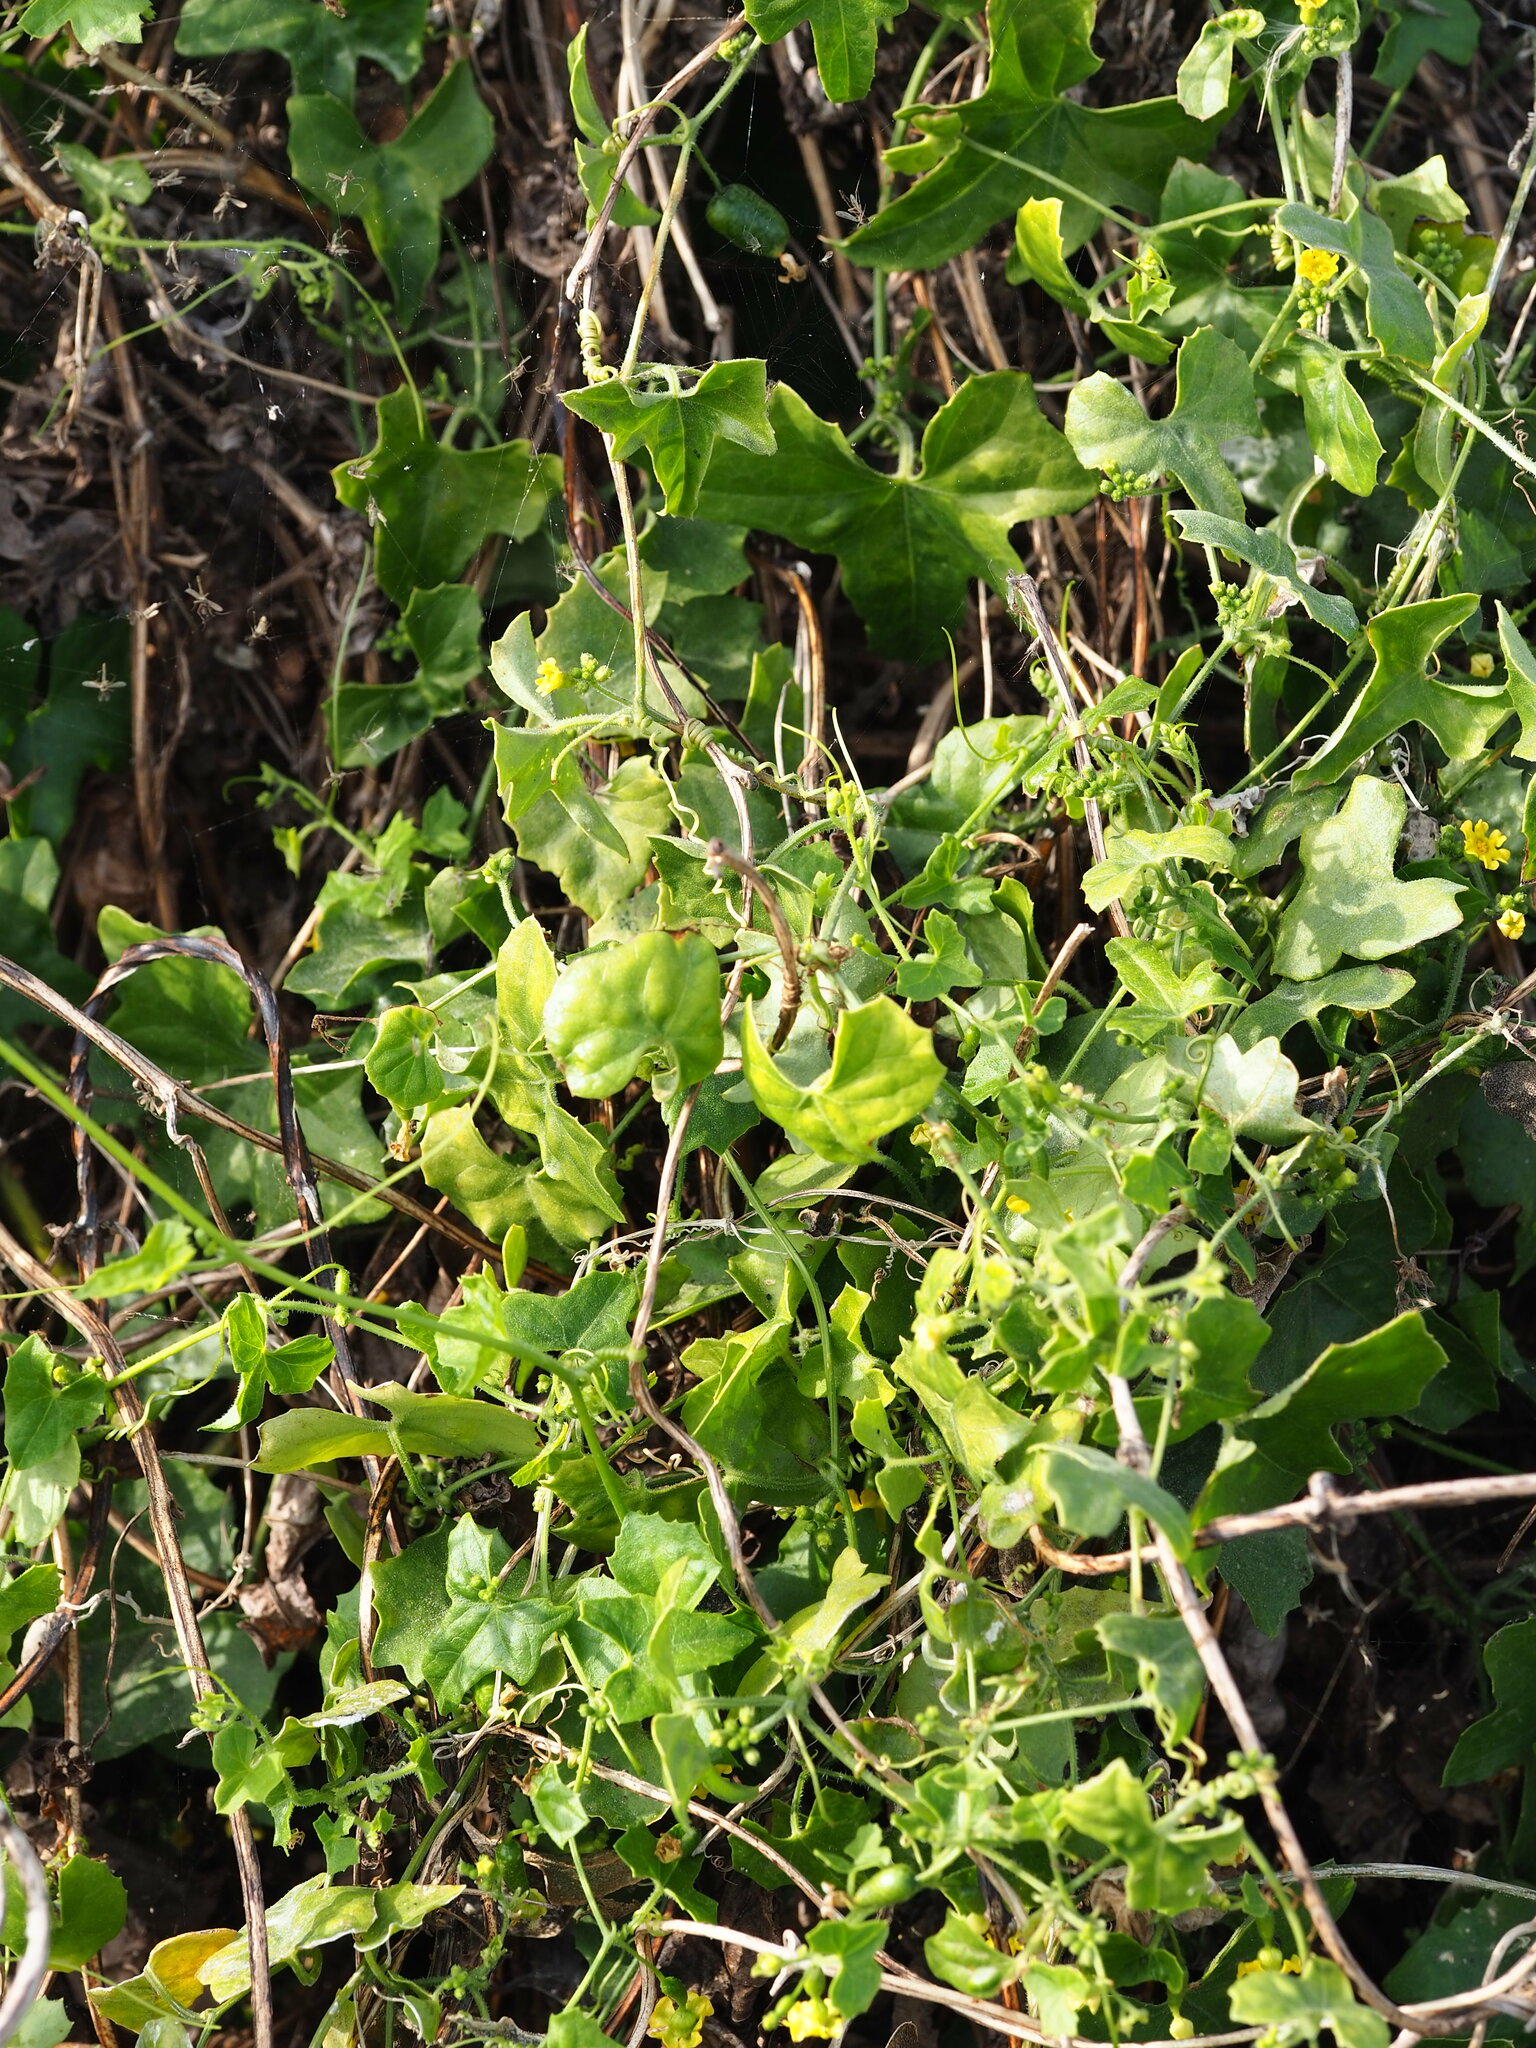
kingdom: Plantae
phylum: Tracheophyta
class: Magnoliopsida
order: Cucurbitales
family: Cucurbitaceae
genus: Melothria
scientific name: Melothria pendula
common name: Creeping-cucumber
